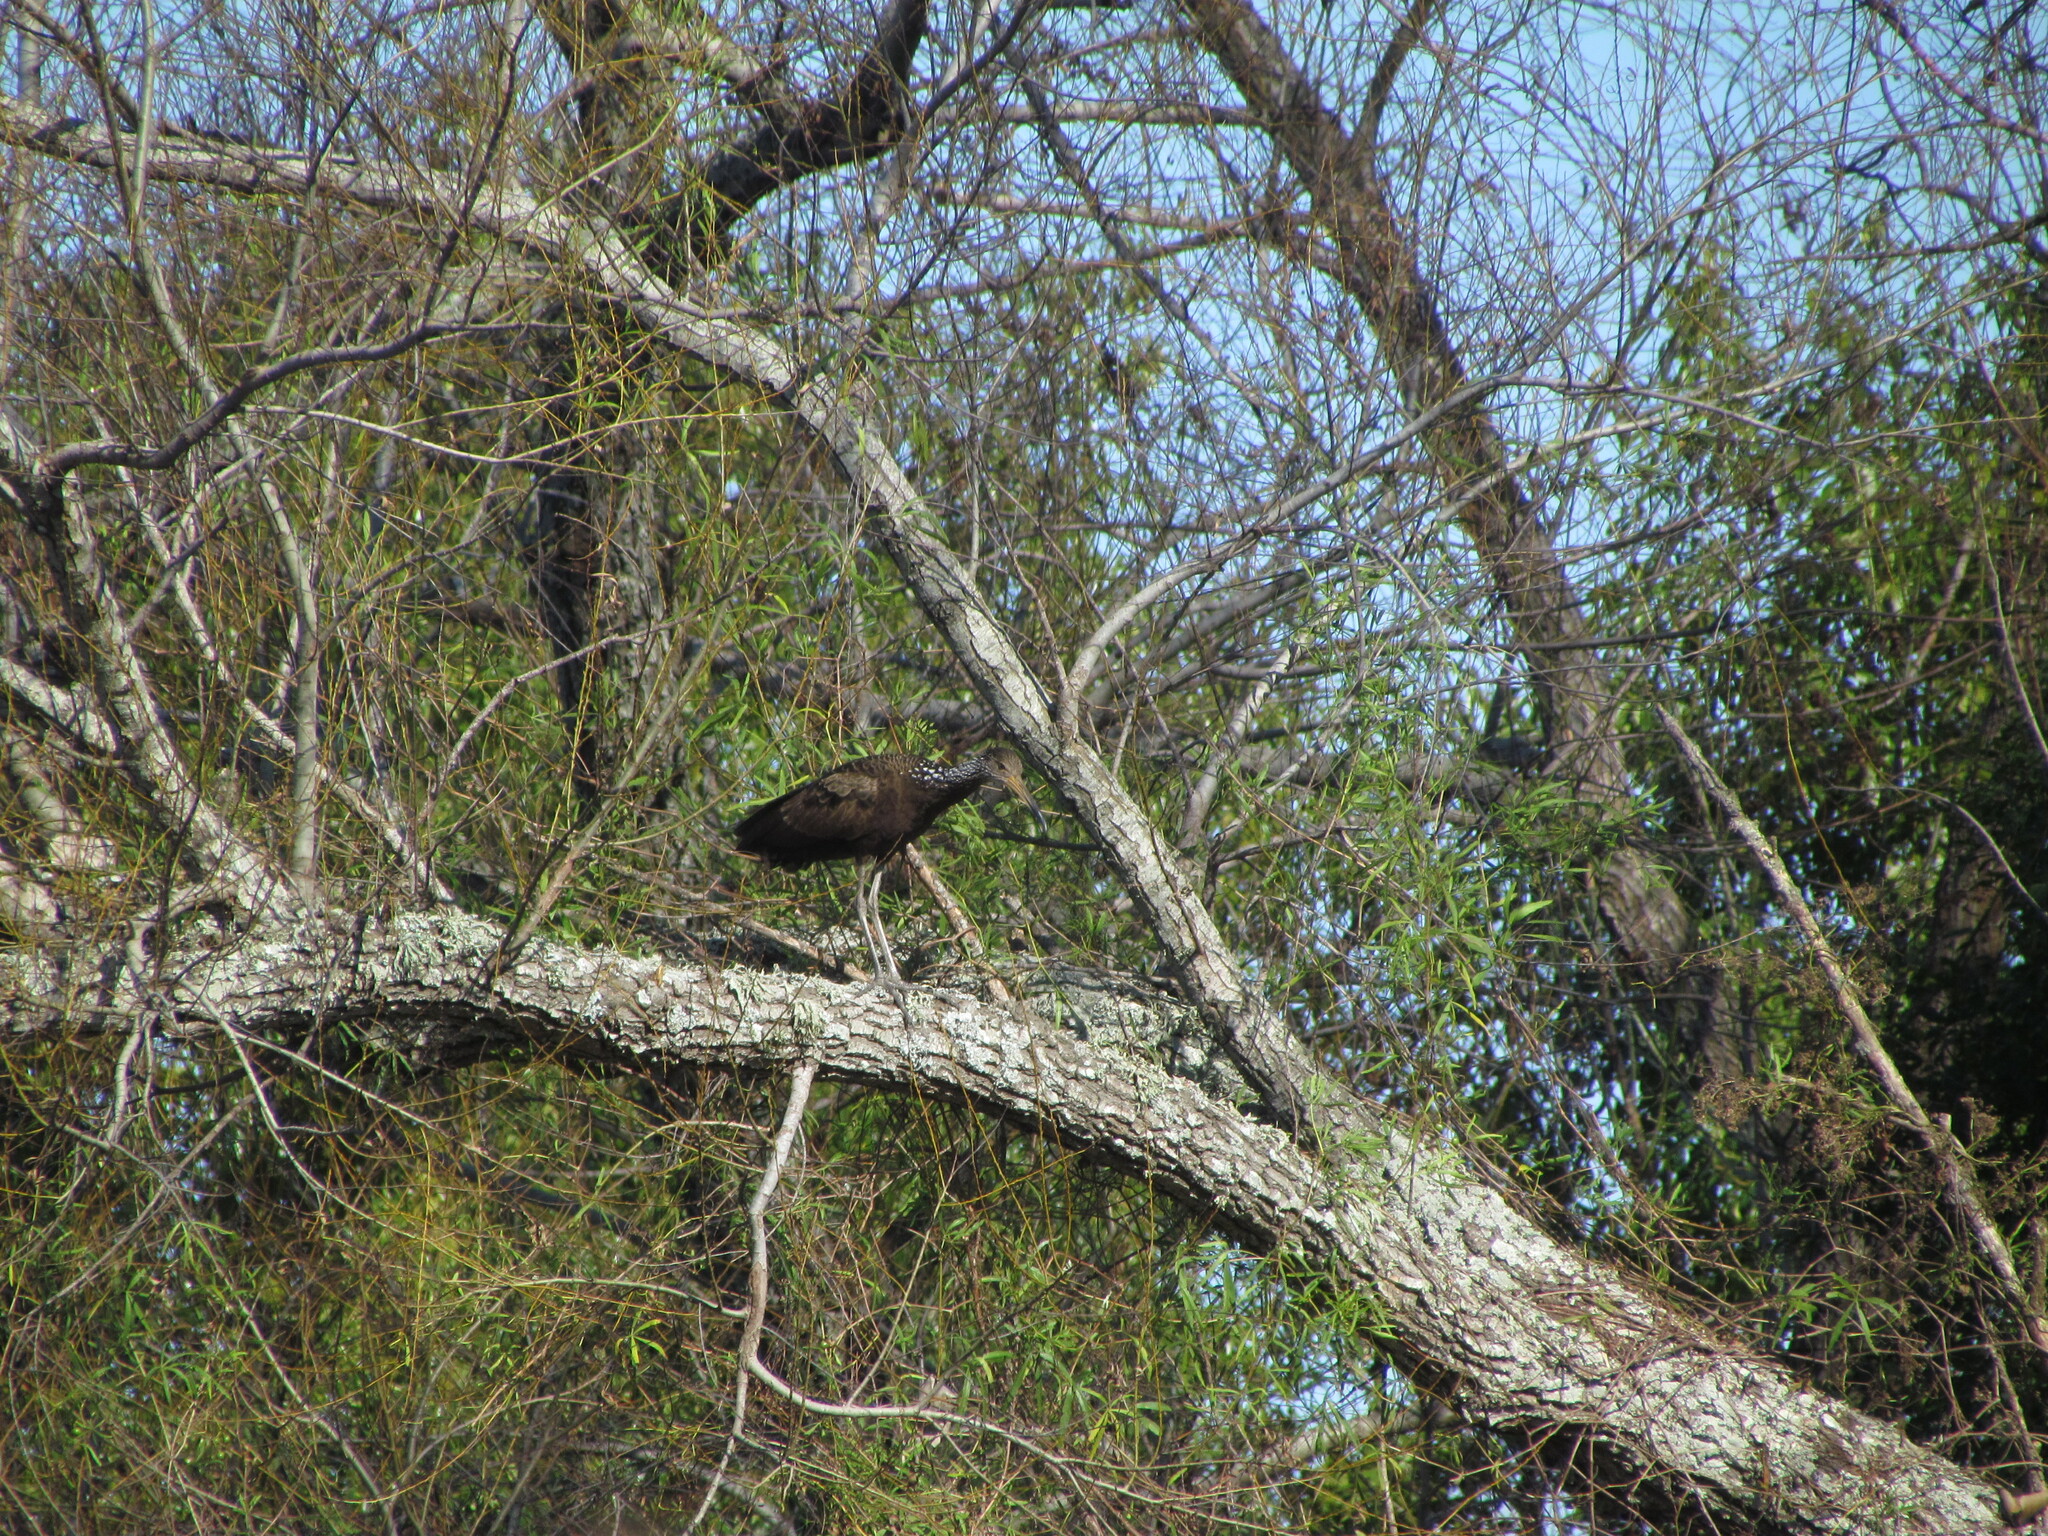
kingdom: Animalia
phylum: Chordata
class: Aves
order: Gruiformes
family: Aramidae
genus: Aramus
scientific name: Aramus guarauna
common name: Limpkin
